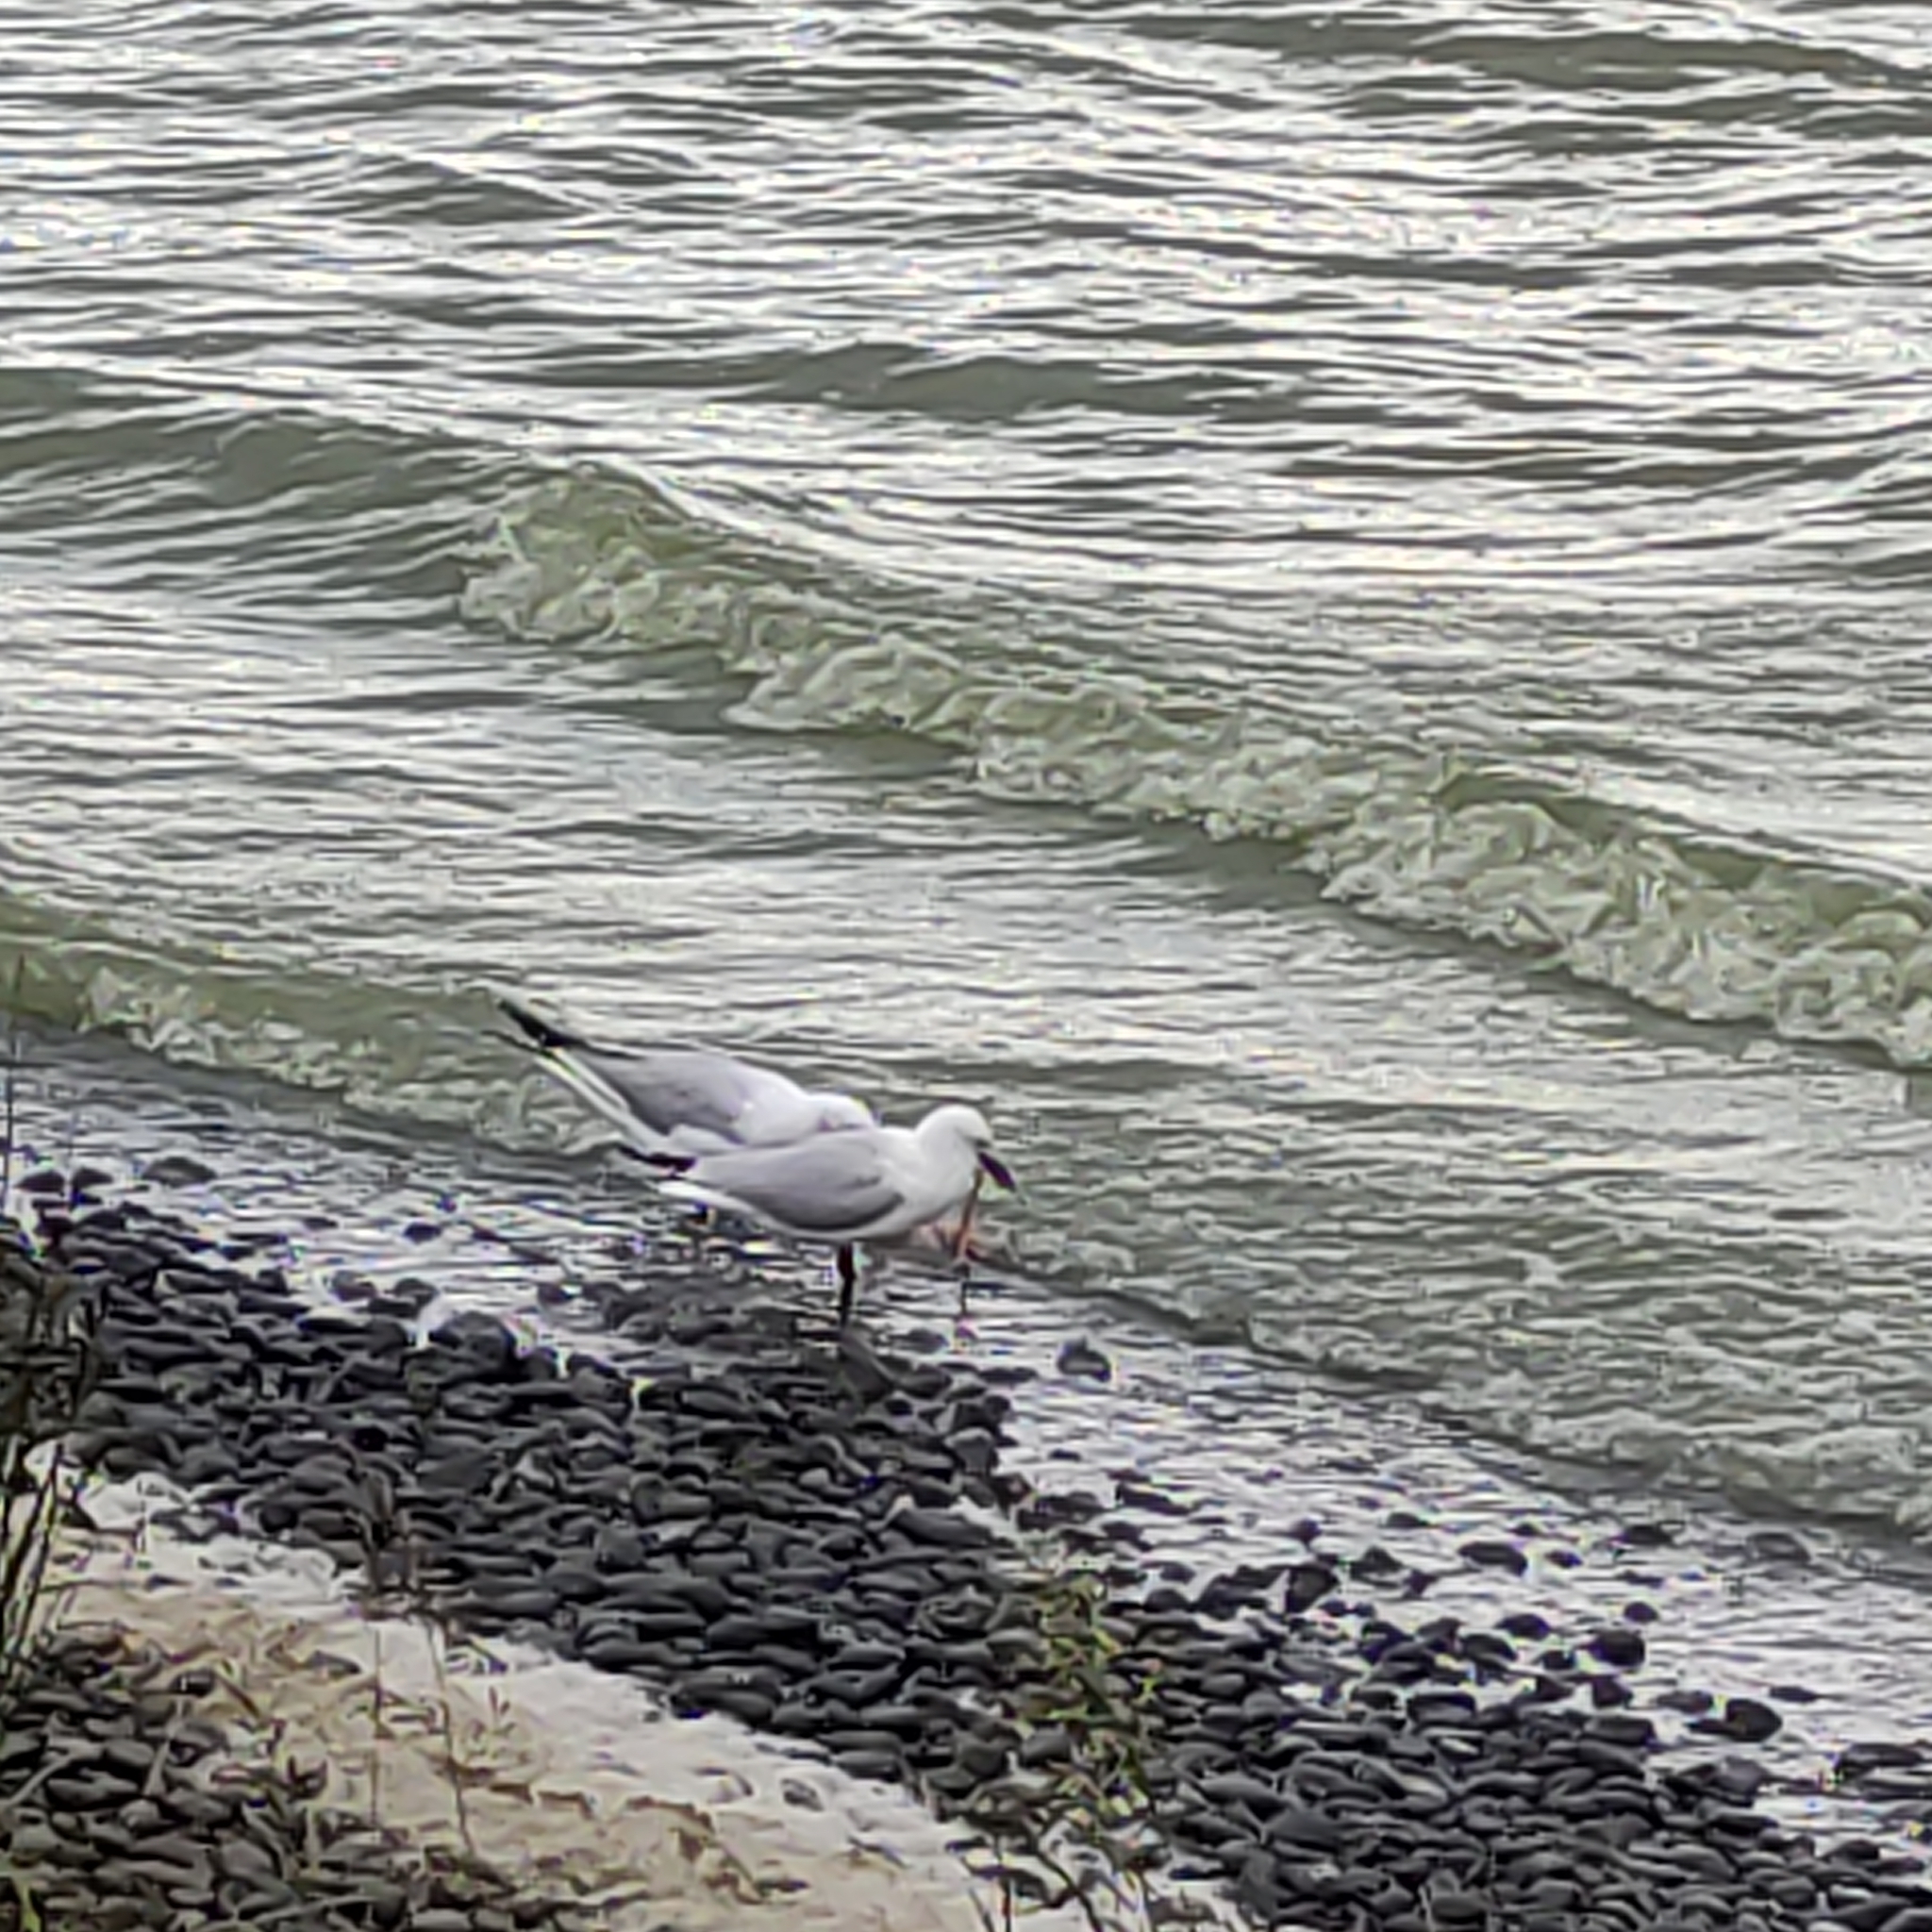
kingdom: Animalia
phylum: Chordata
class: Aves
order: Charadriiformes
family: Laridae
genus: Chroicocephalus
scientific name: Chroicocephalus bulleri
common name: Black-billed gull
